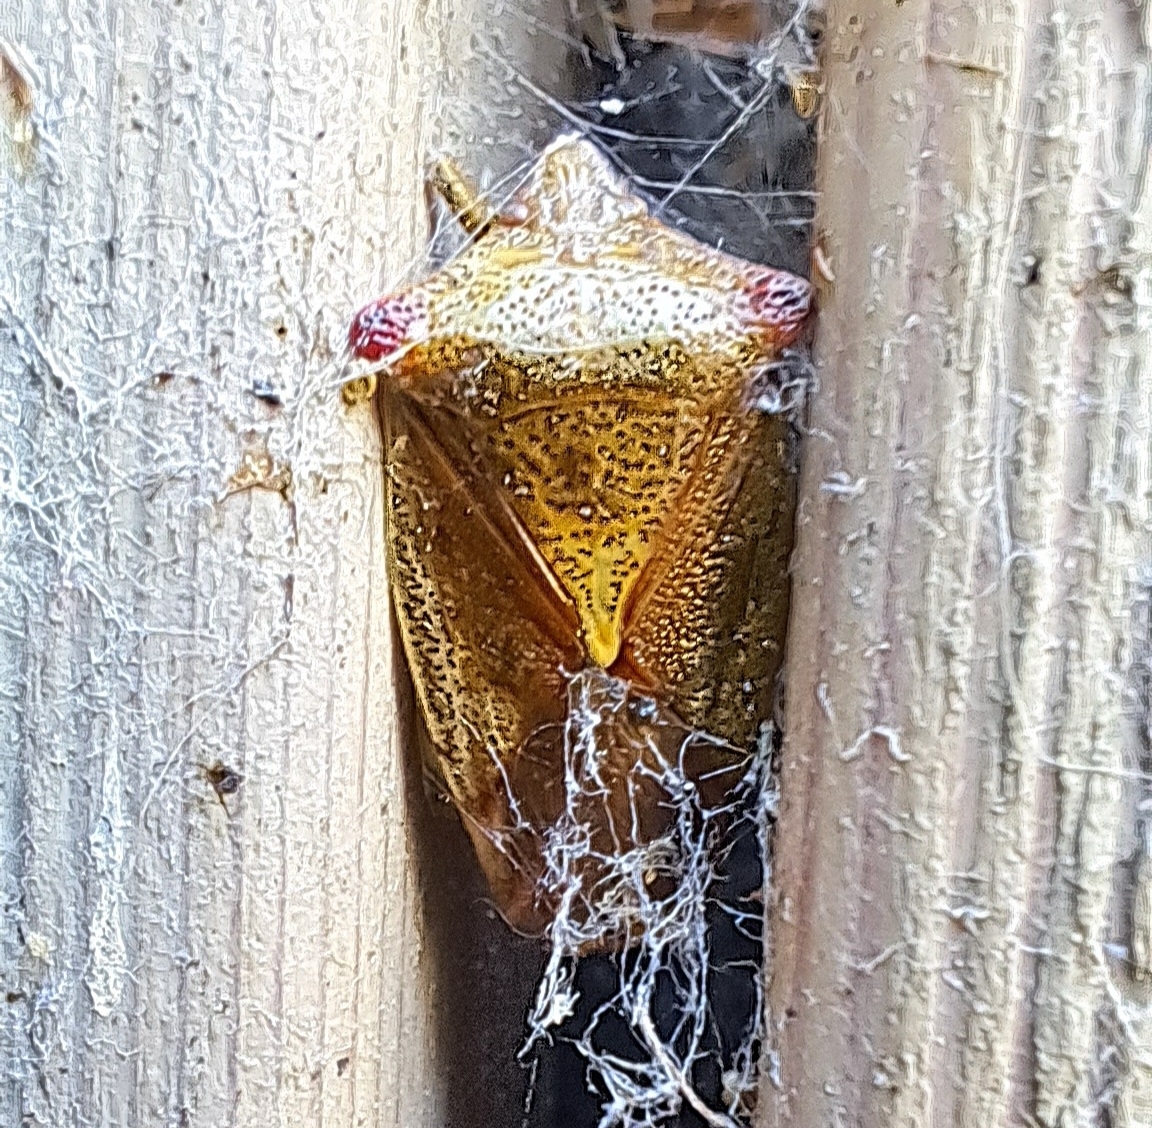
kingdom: Animalia
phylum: Arthropoda
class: Insecta
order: Hemiptera
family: Acanthosomatidae
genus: Acanthosoma
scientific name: Acanthosoma haemorrhoidale
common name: Hawthorn shieldbug
